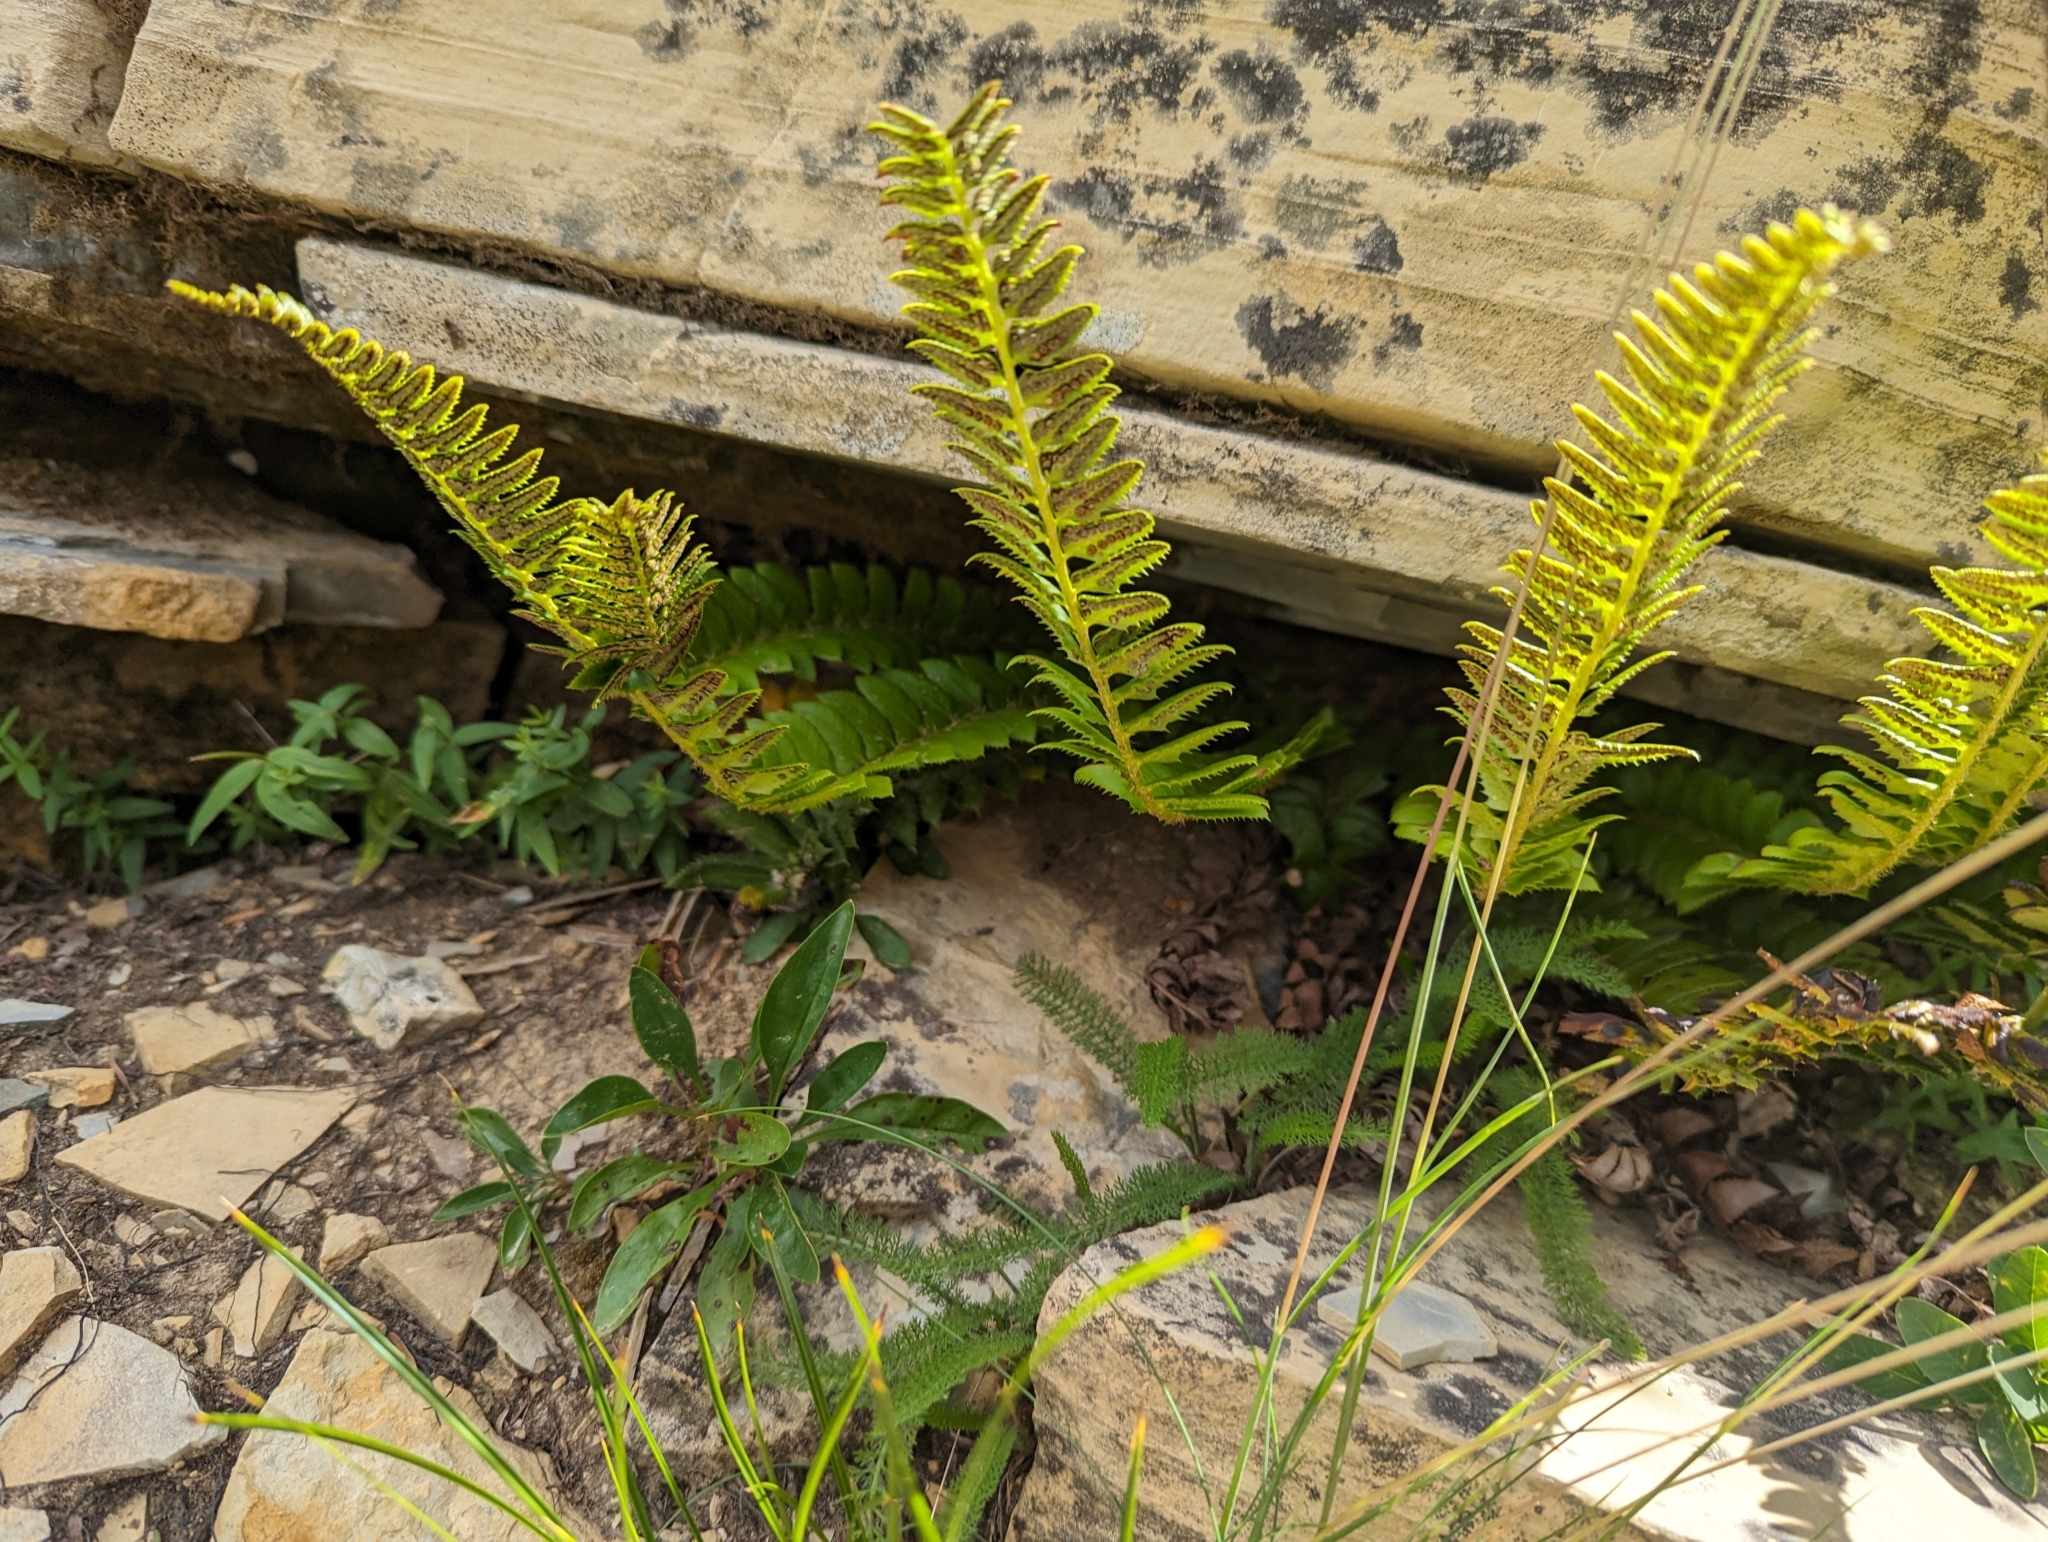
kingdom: Plantae
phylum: Tracheophyta
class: Polypodiopsida
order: Polypodiales
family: Dryopteridaceae
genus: Polystichum
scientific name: Polystichum lonchitis
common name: Holly fern
